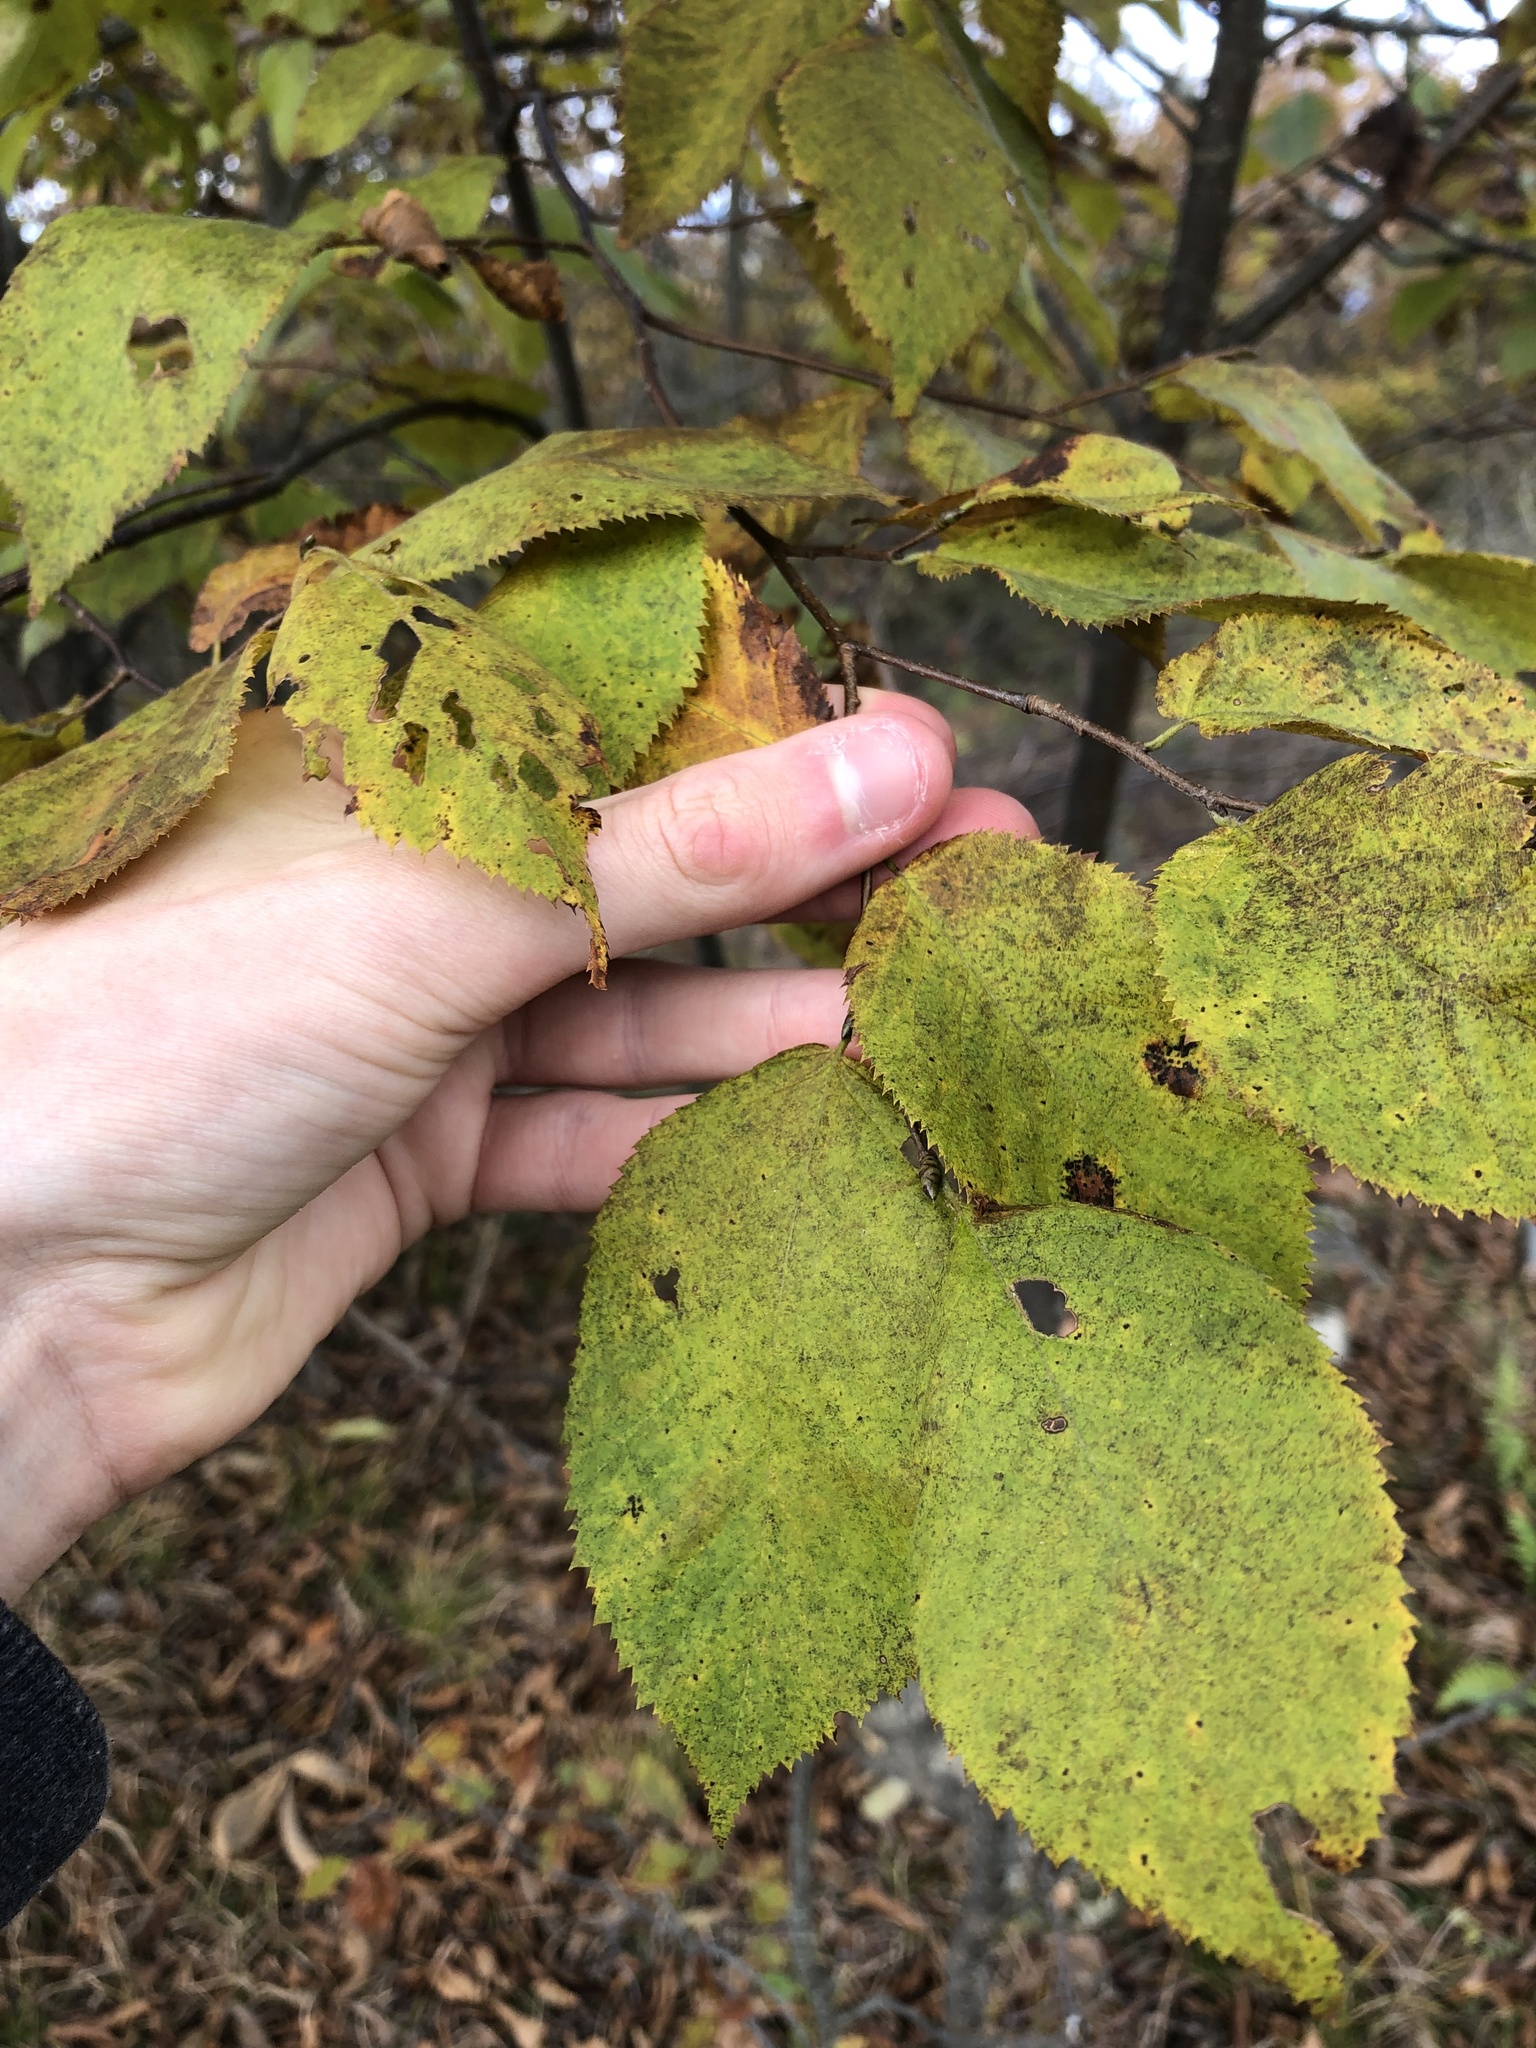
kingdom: Plantae
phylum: Tracheophyta
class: Magnoliopsida
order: Fagales
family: Betulaceae
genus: Ostrya
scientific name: Ostrya virginiana
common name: Ironwood
